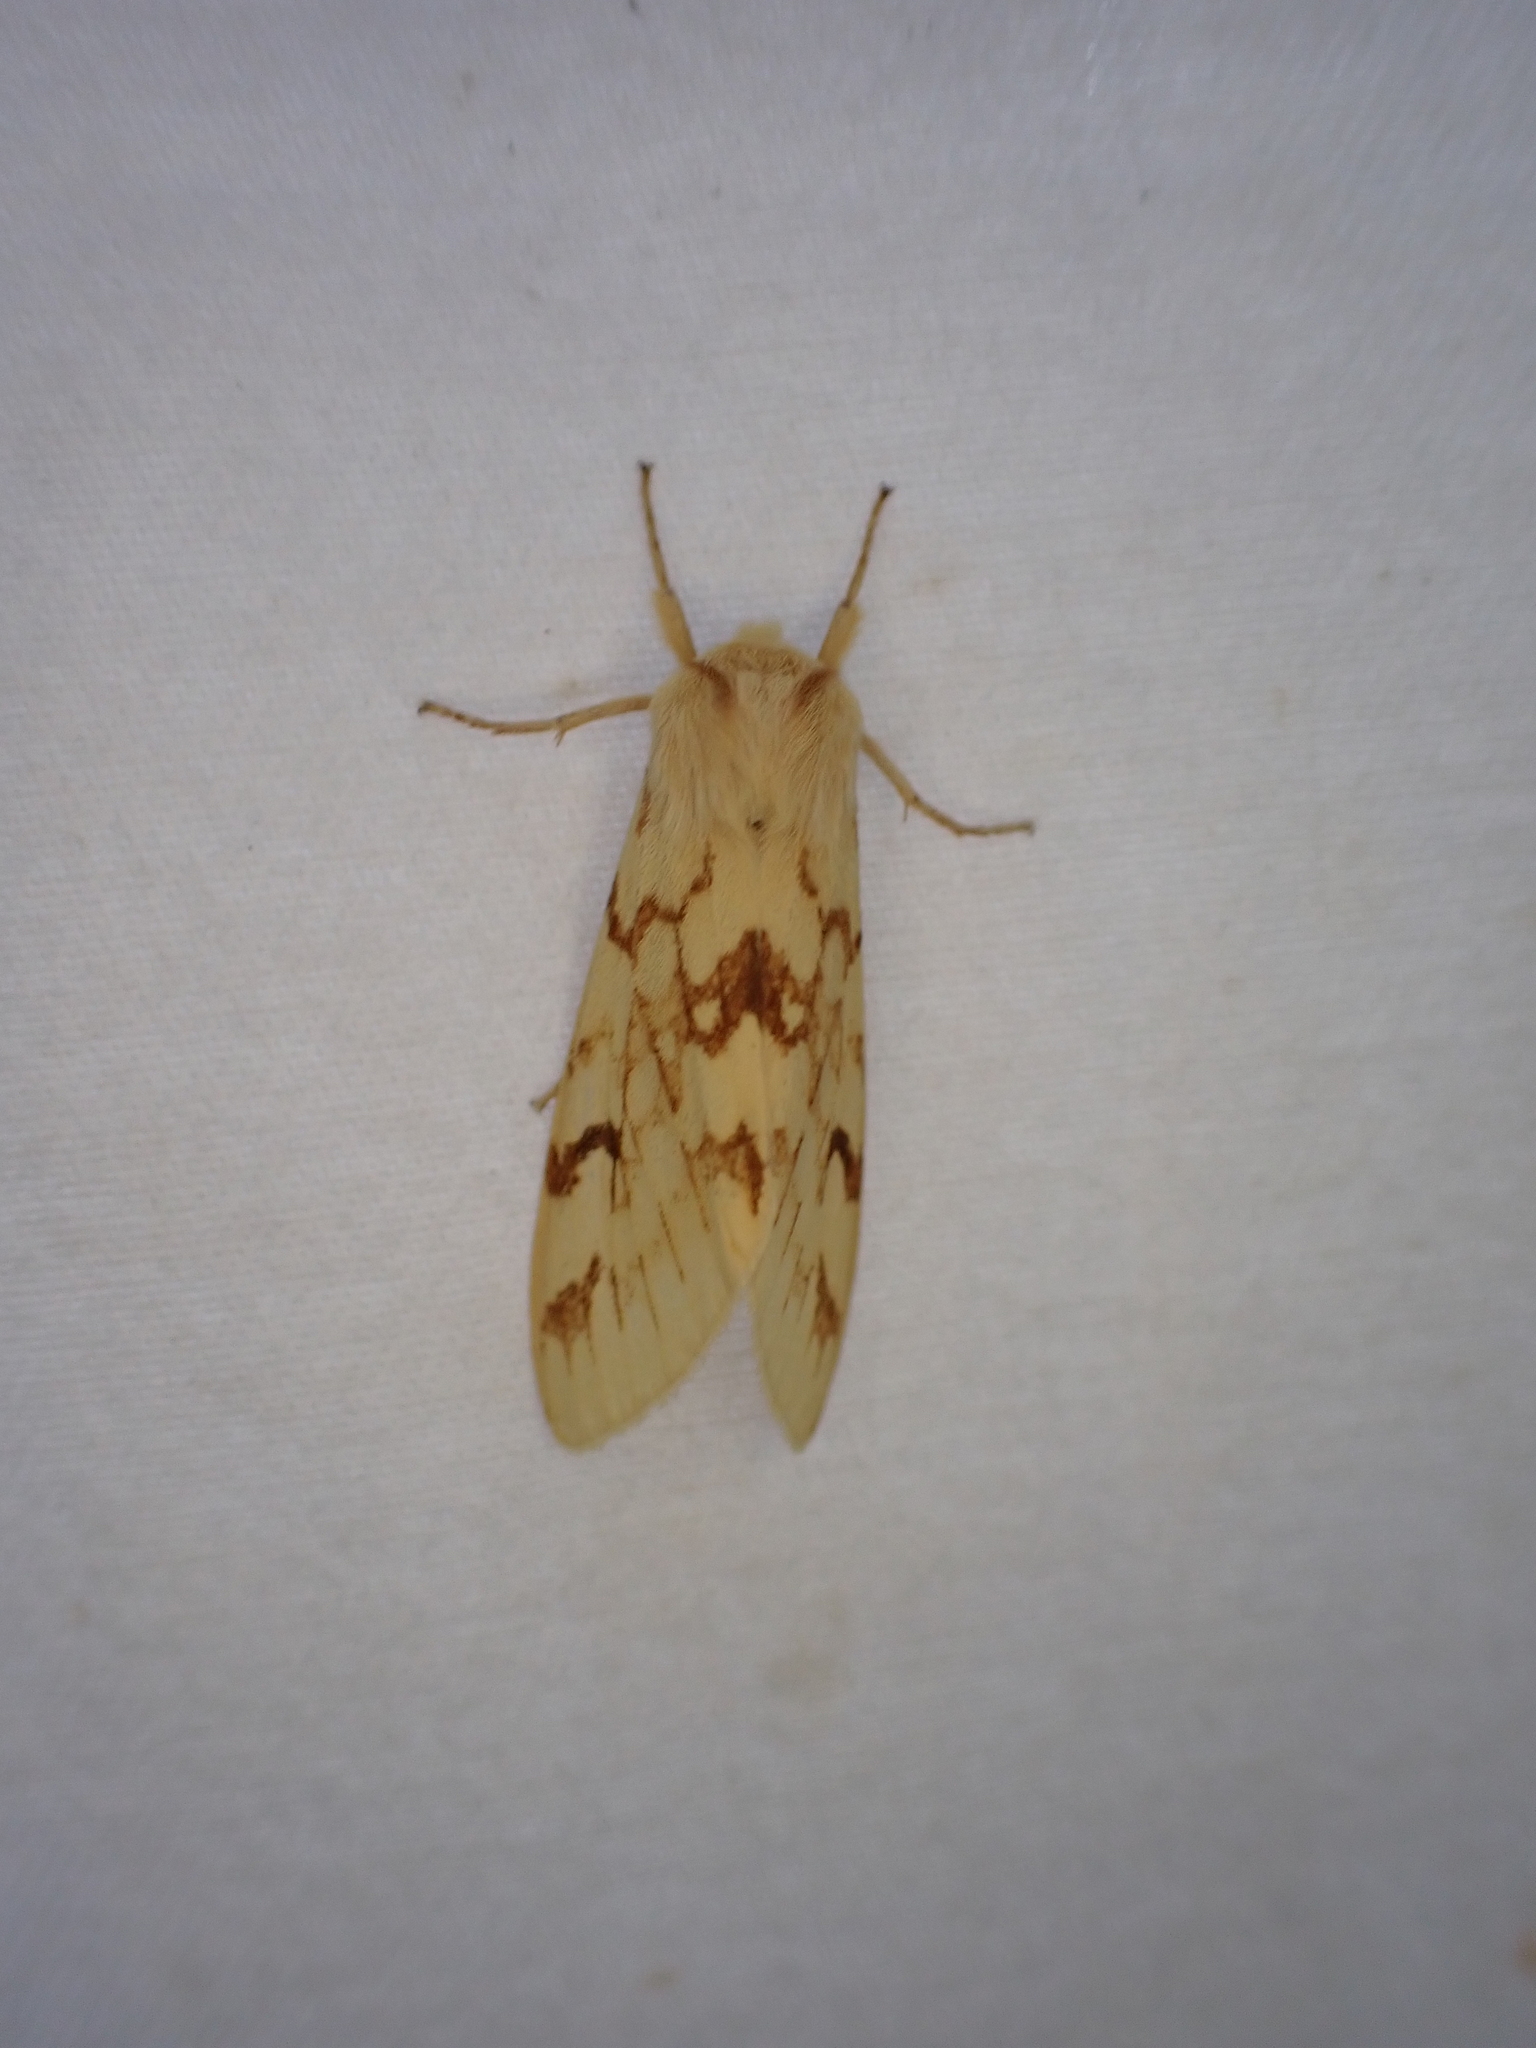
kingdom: Animalia
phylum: Arthropoda
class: Insecta
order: Lepidoptera
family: Erebidae
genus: Lophocampa
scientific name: Lophocampa maculata
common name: Spotted tussock moth
